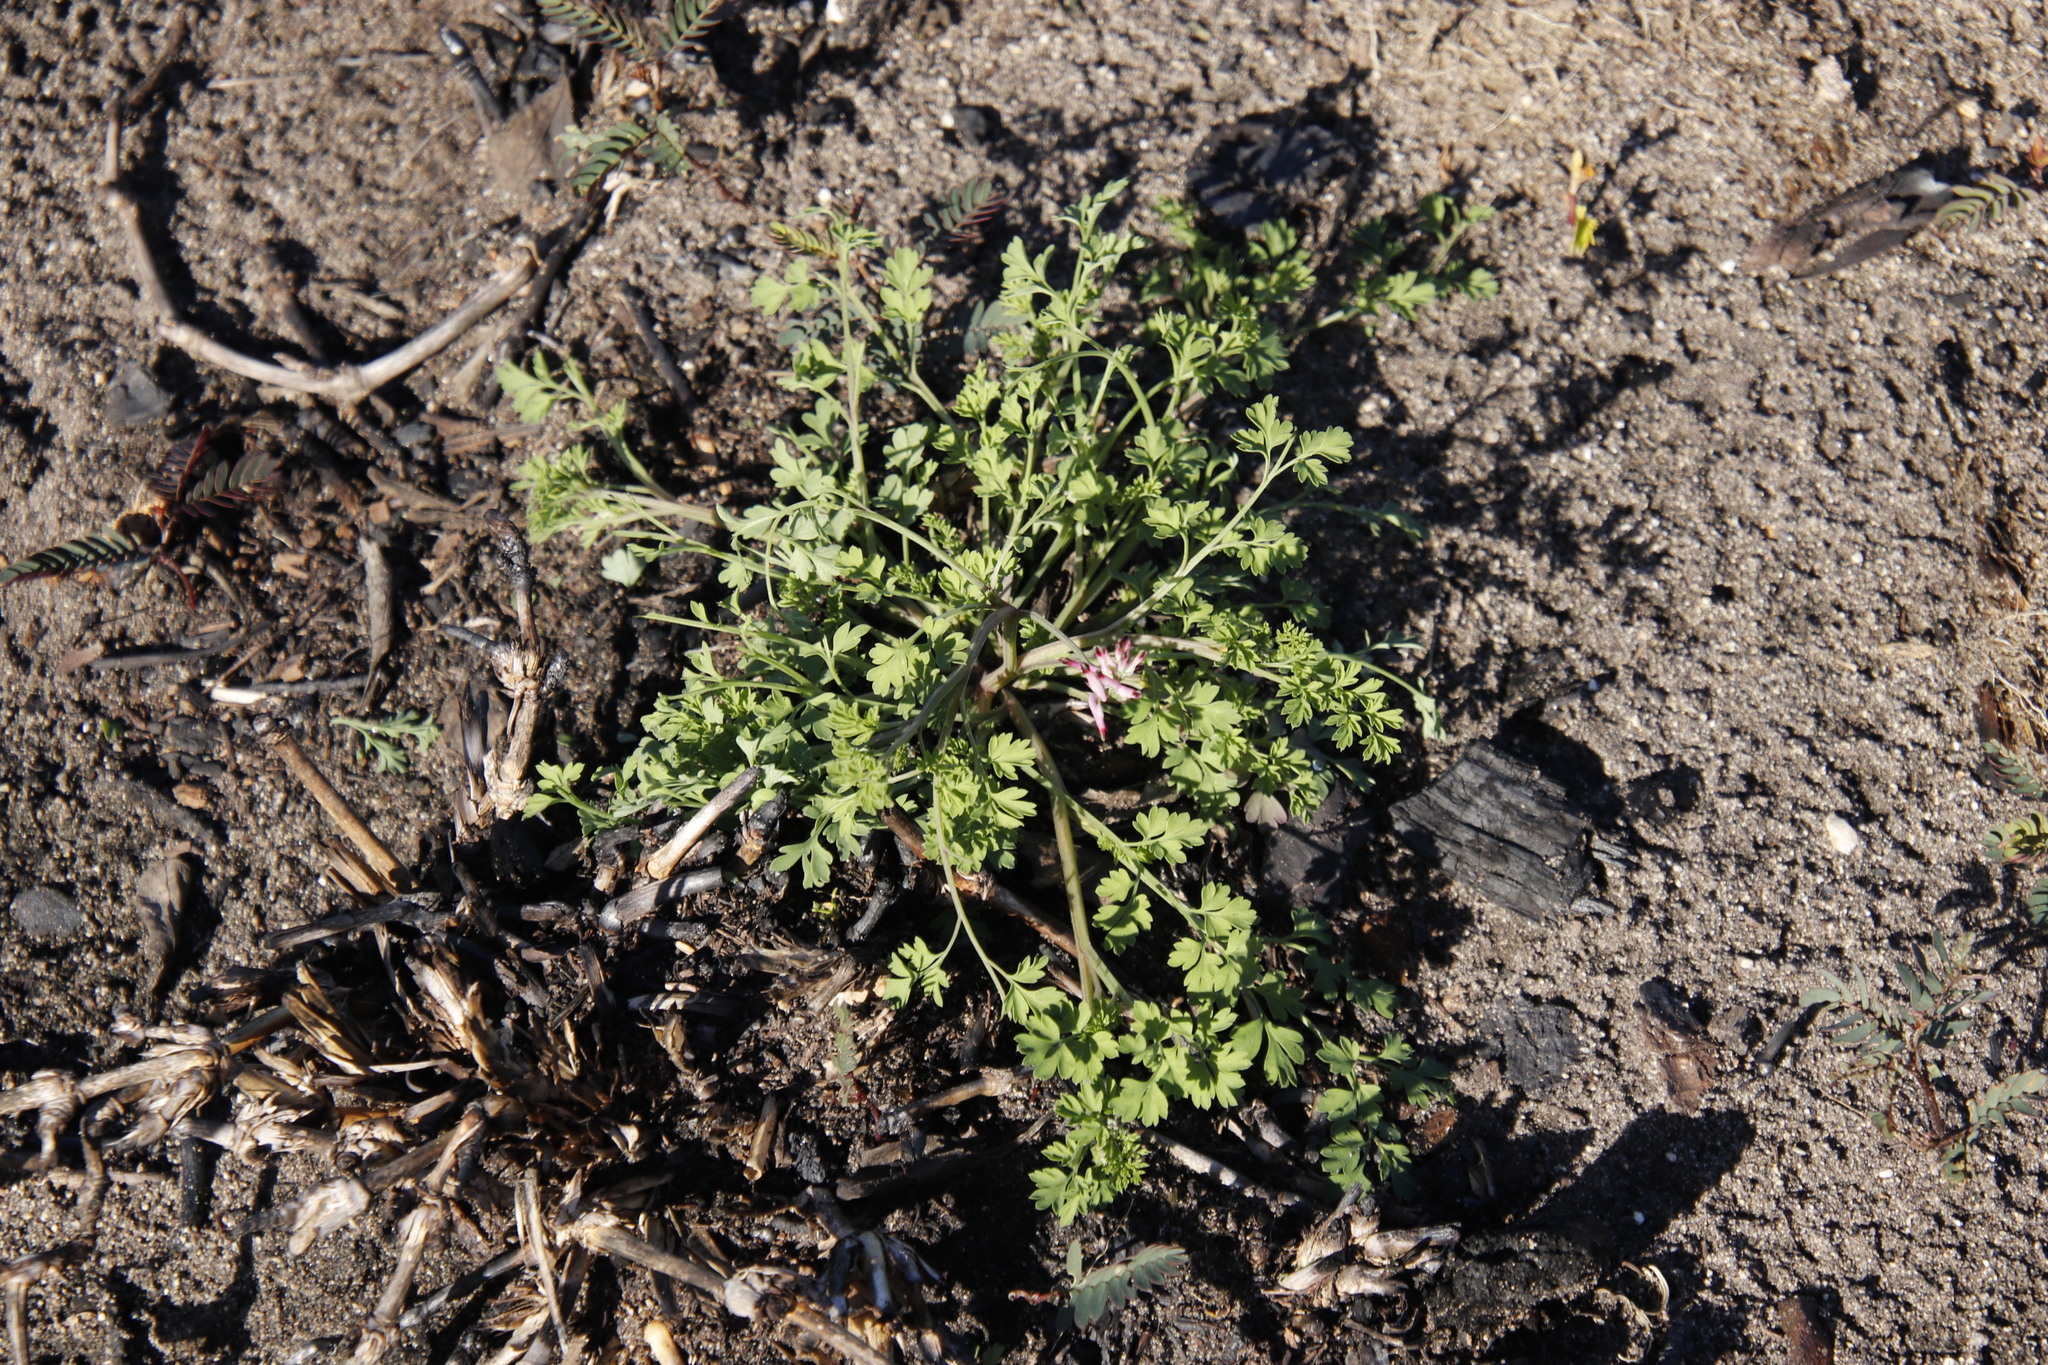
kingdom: Plantae
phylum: Tracheophyta
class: Magnoliopsida
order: Ranunculales
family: Papaveraceae
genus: Fumaria
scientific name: Fumaria muralis
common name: Common ramping-fumitory
